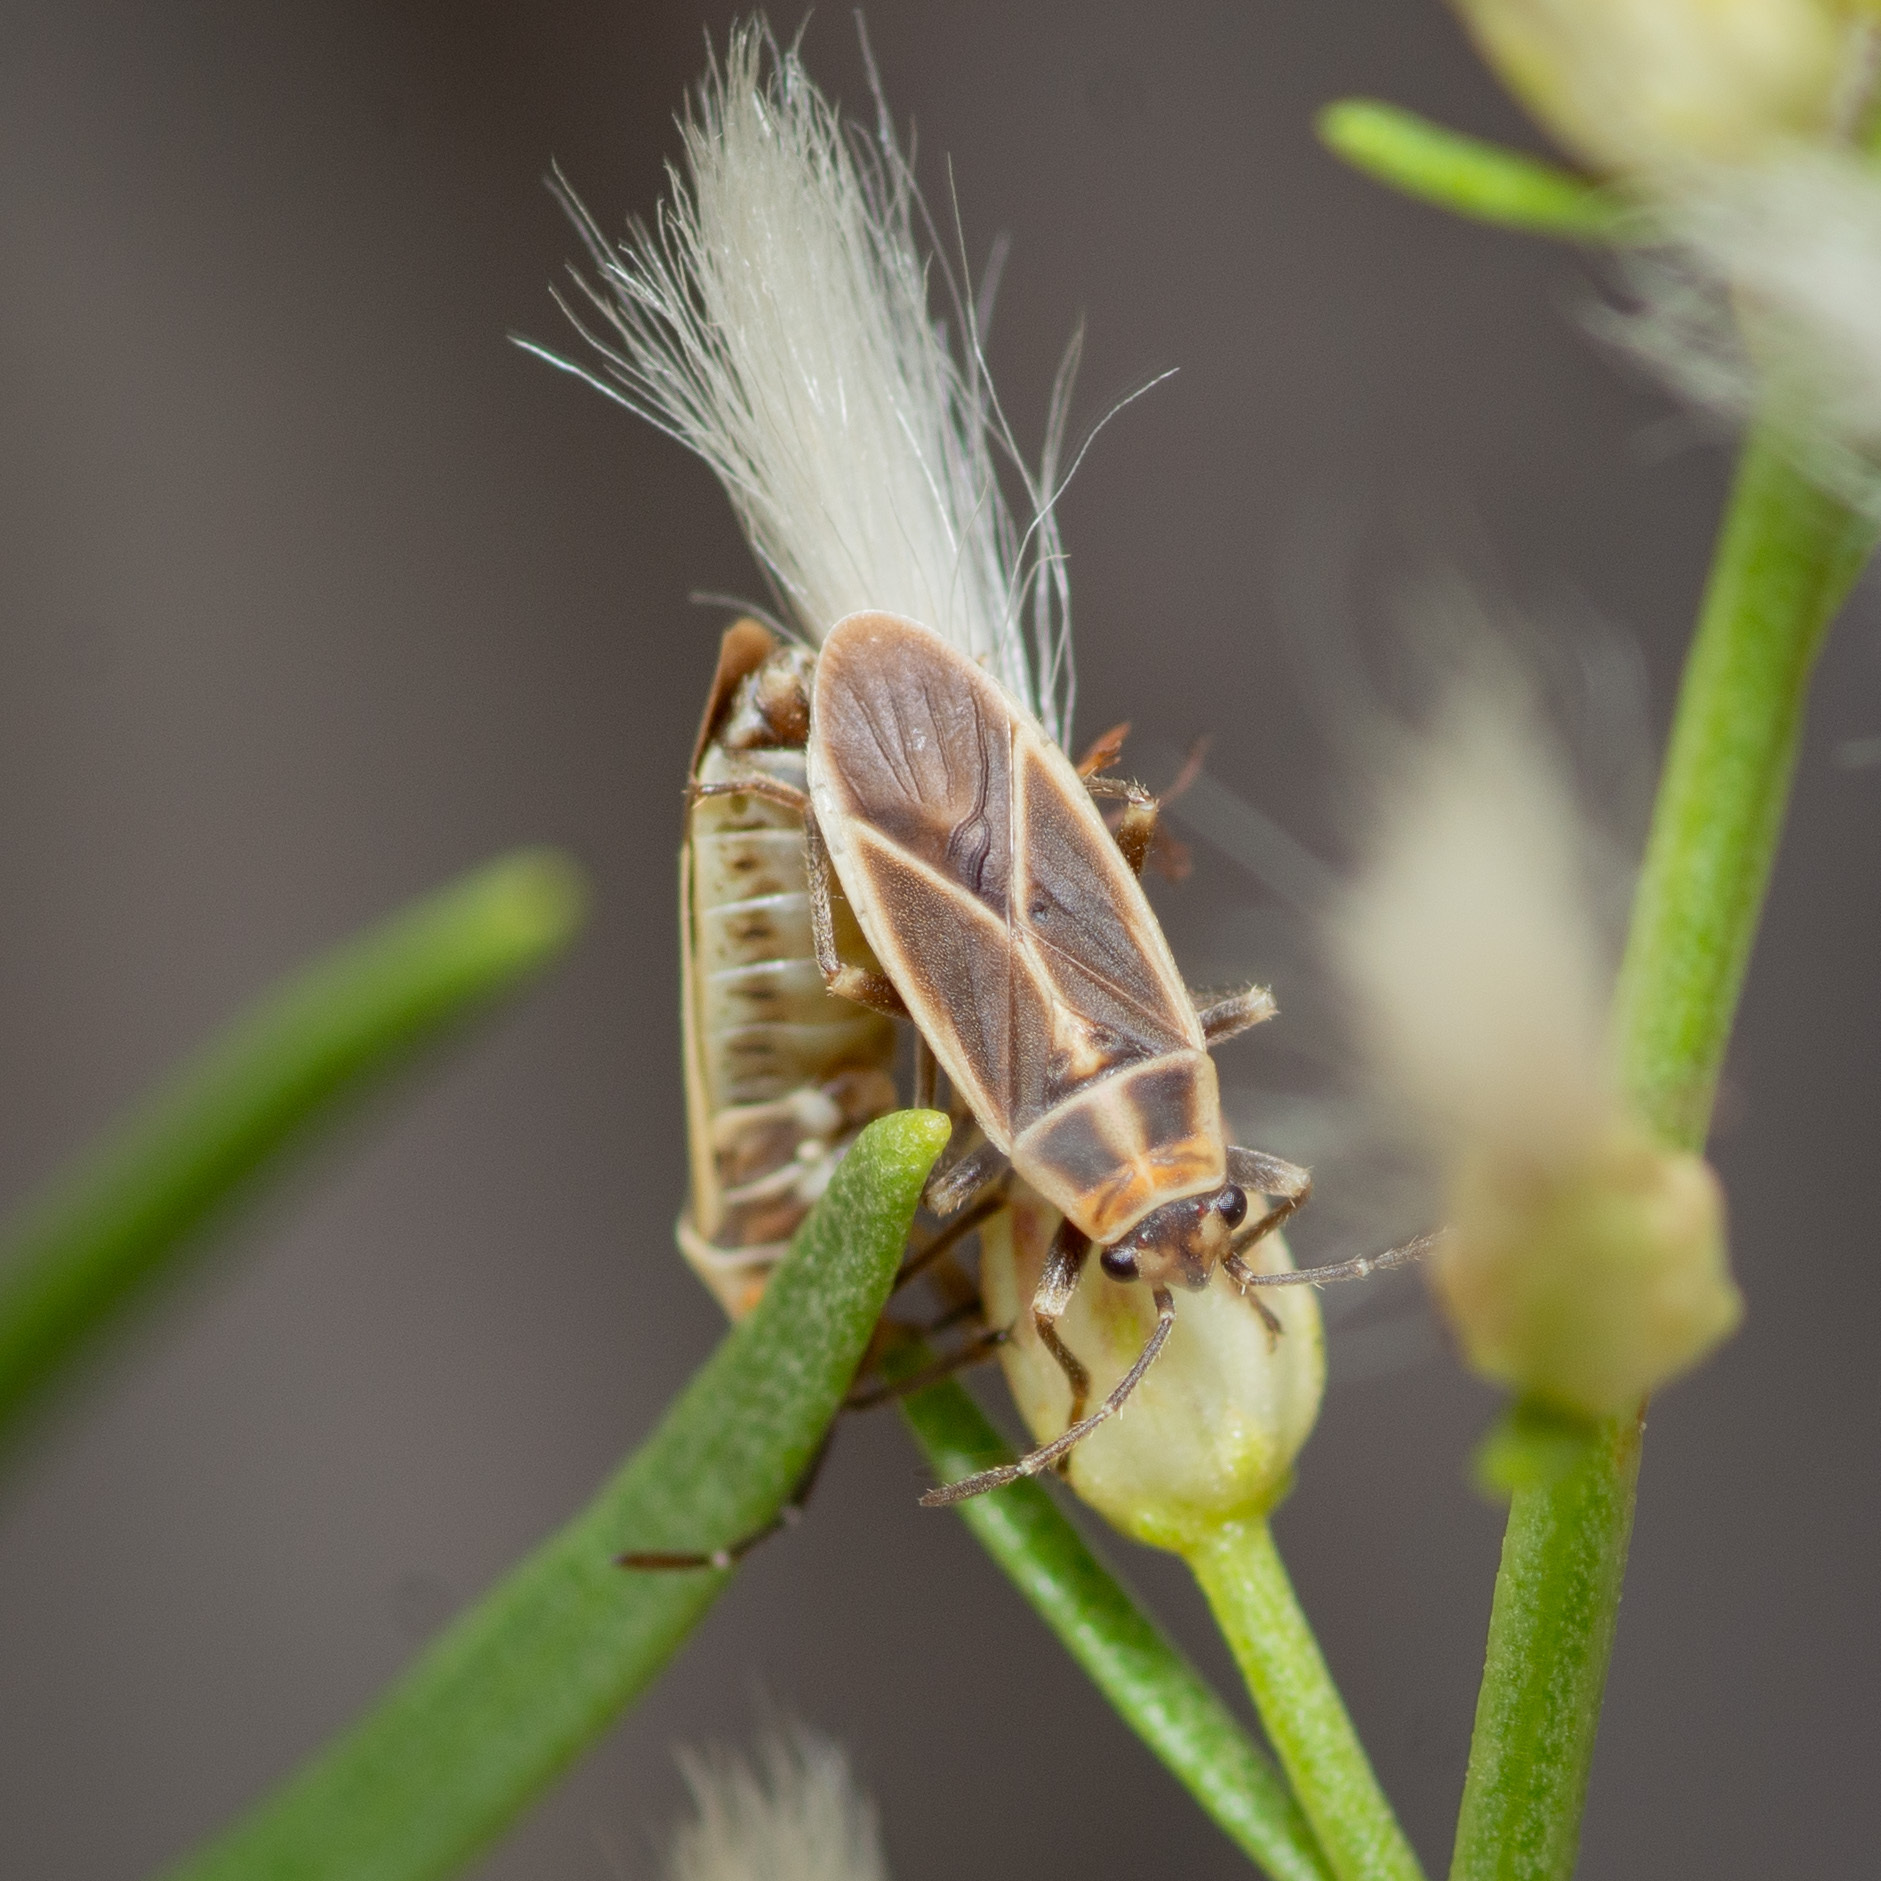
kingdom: Animalia
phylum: Arthropoda
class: Insecta
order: Hemiptera
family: Lygaeidae
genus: Ochrimnus
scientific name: Ochrimnus mimulus
